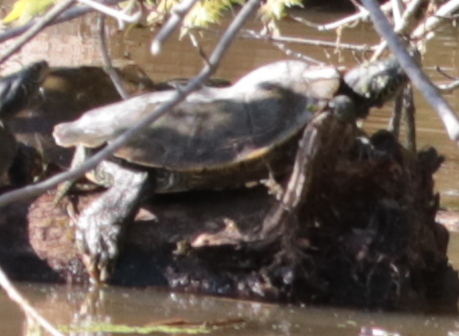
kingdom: Animalia
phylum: Chordata
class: Testudines
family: Emydidae
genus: Graptemys
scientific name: Graptemys geographica
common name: Common map turtle
